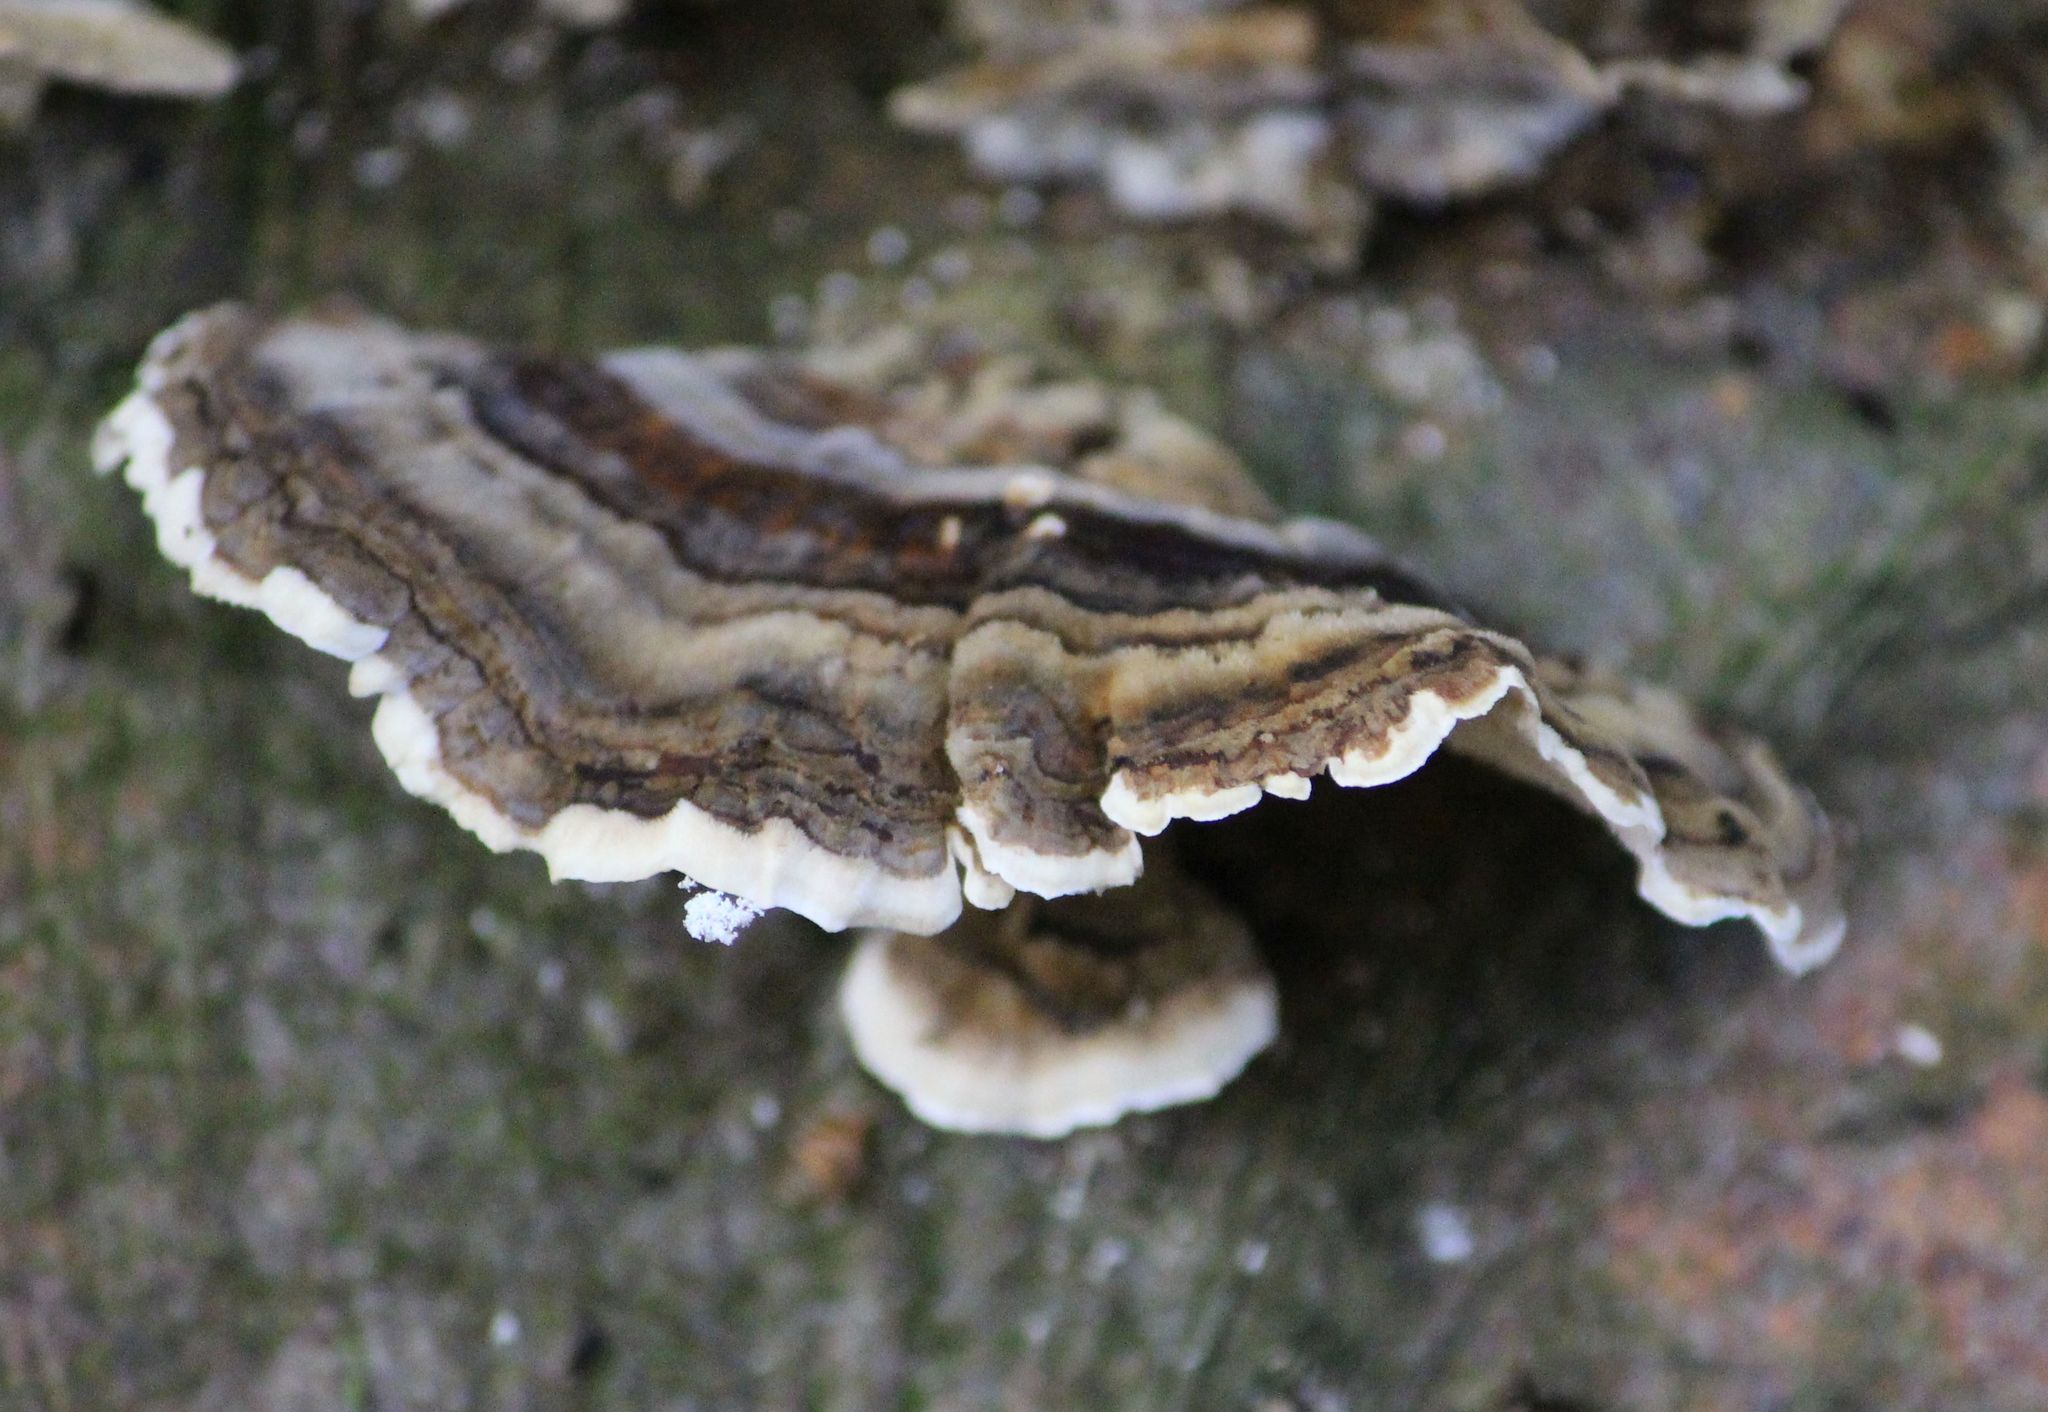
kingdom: Fungi
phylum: Basidiomycota
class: Agaricomycetes
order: Polyporales
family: Polyporaceae
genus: Trametes
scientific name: Trametes versicolor
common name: Turkeytail
